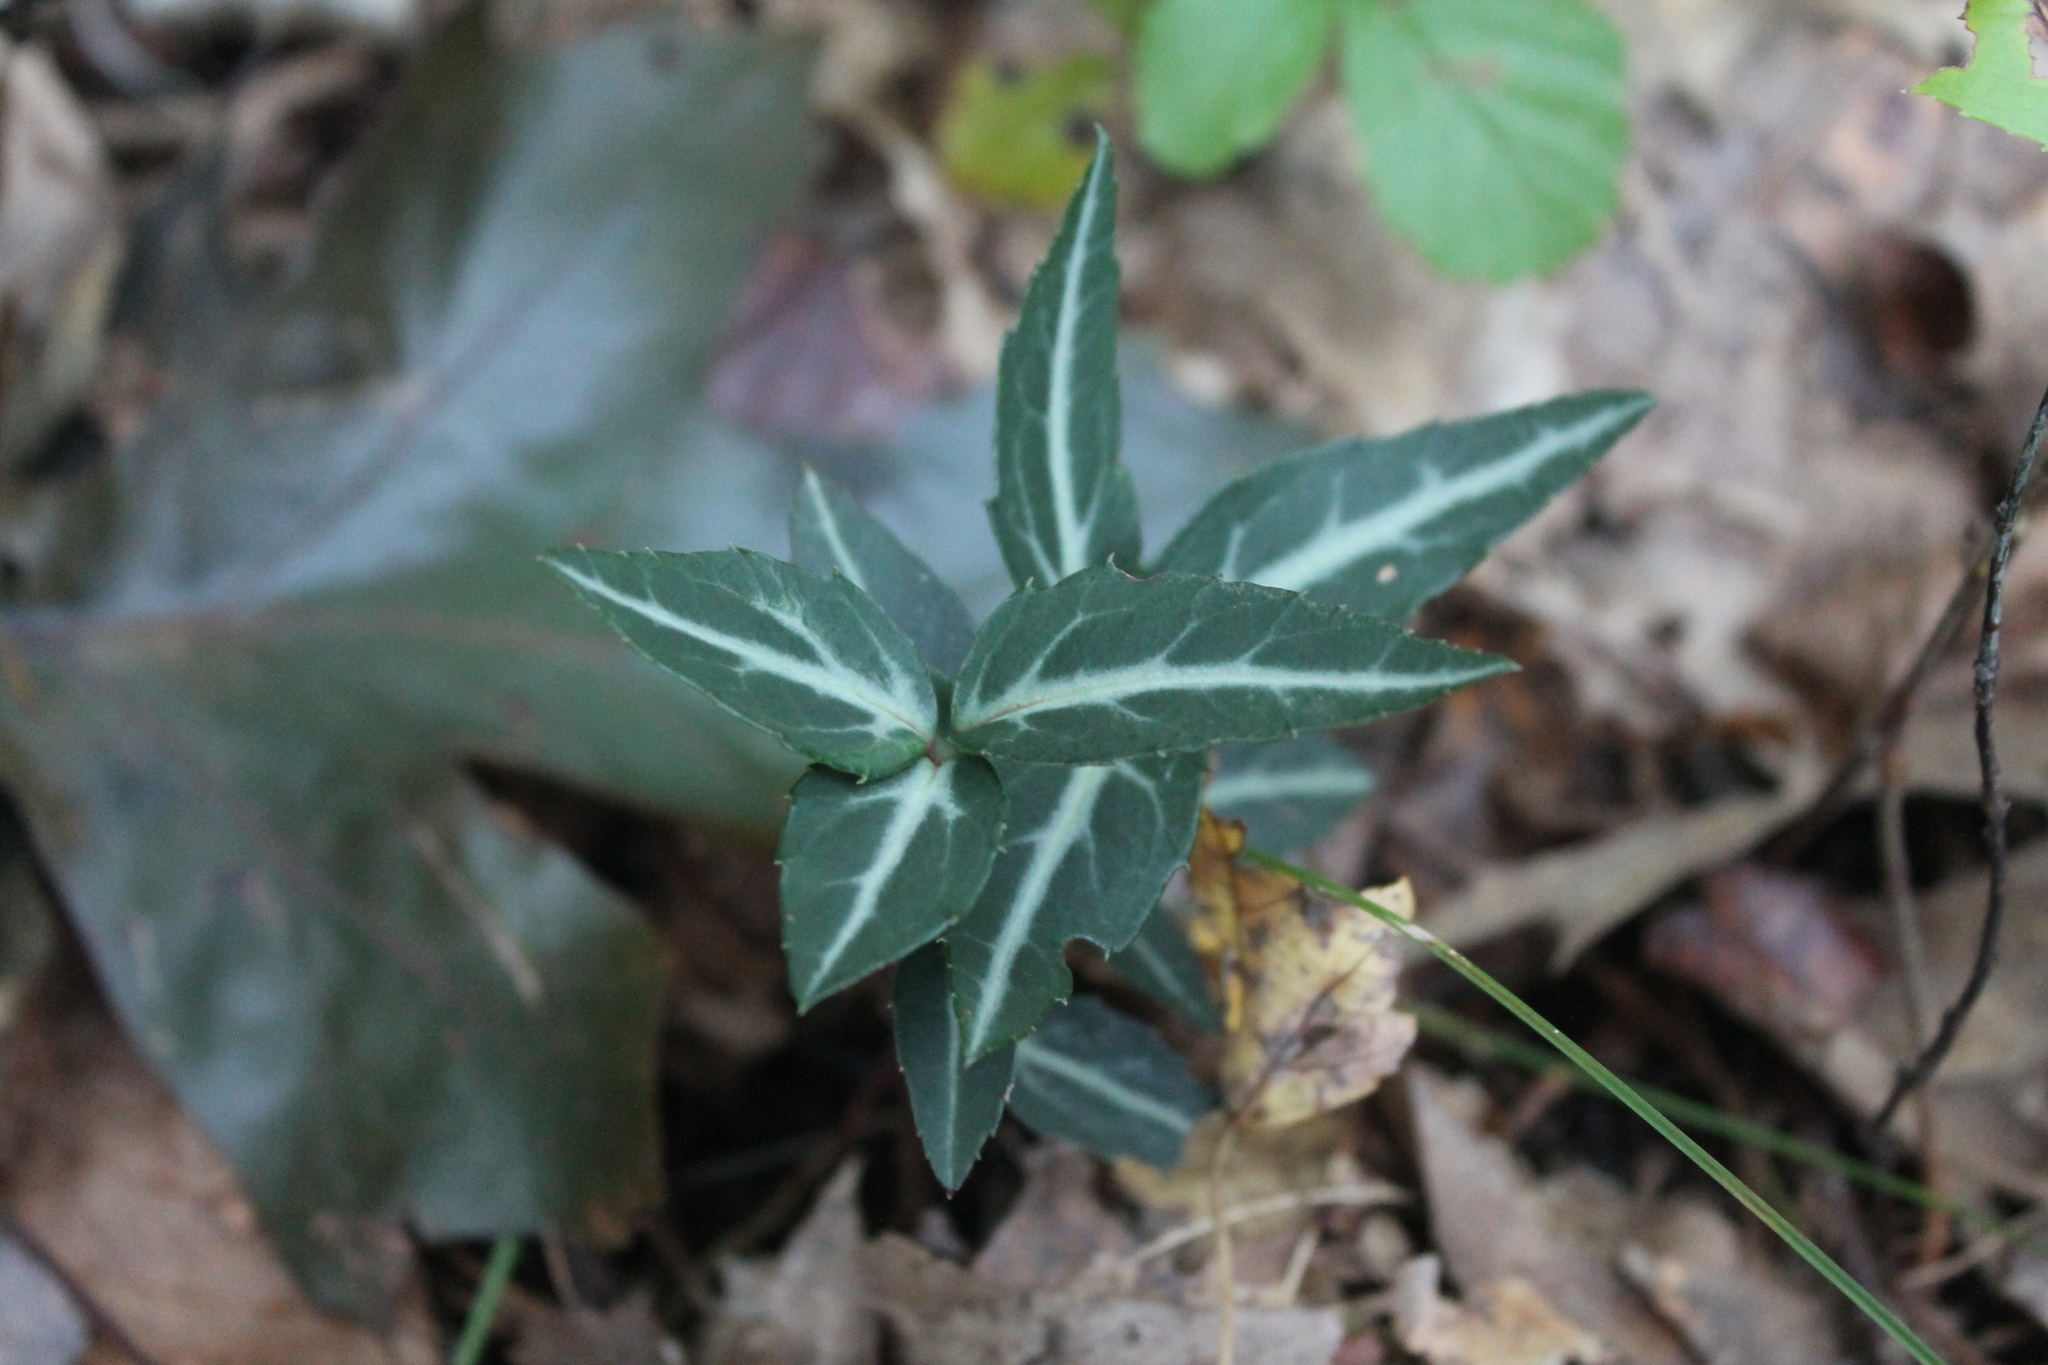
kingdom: Plantae
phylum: Tracheophyta
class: Magnoliopsida
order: Ericales
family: Ericaceae
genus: Chimaphila
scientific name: Chimaphila maculata
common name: Spotted pipsissewa
